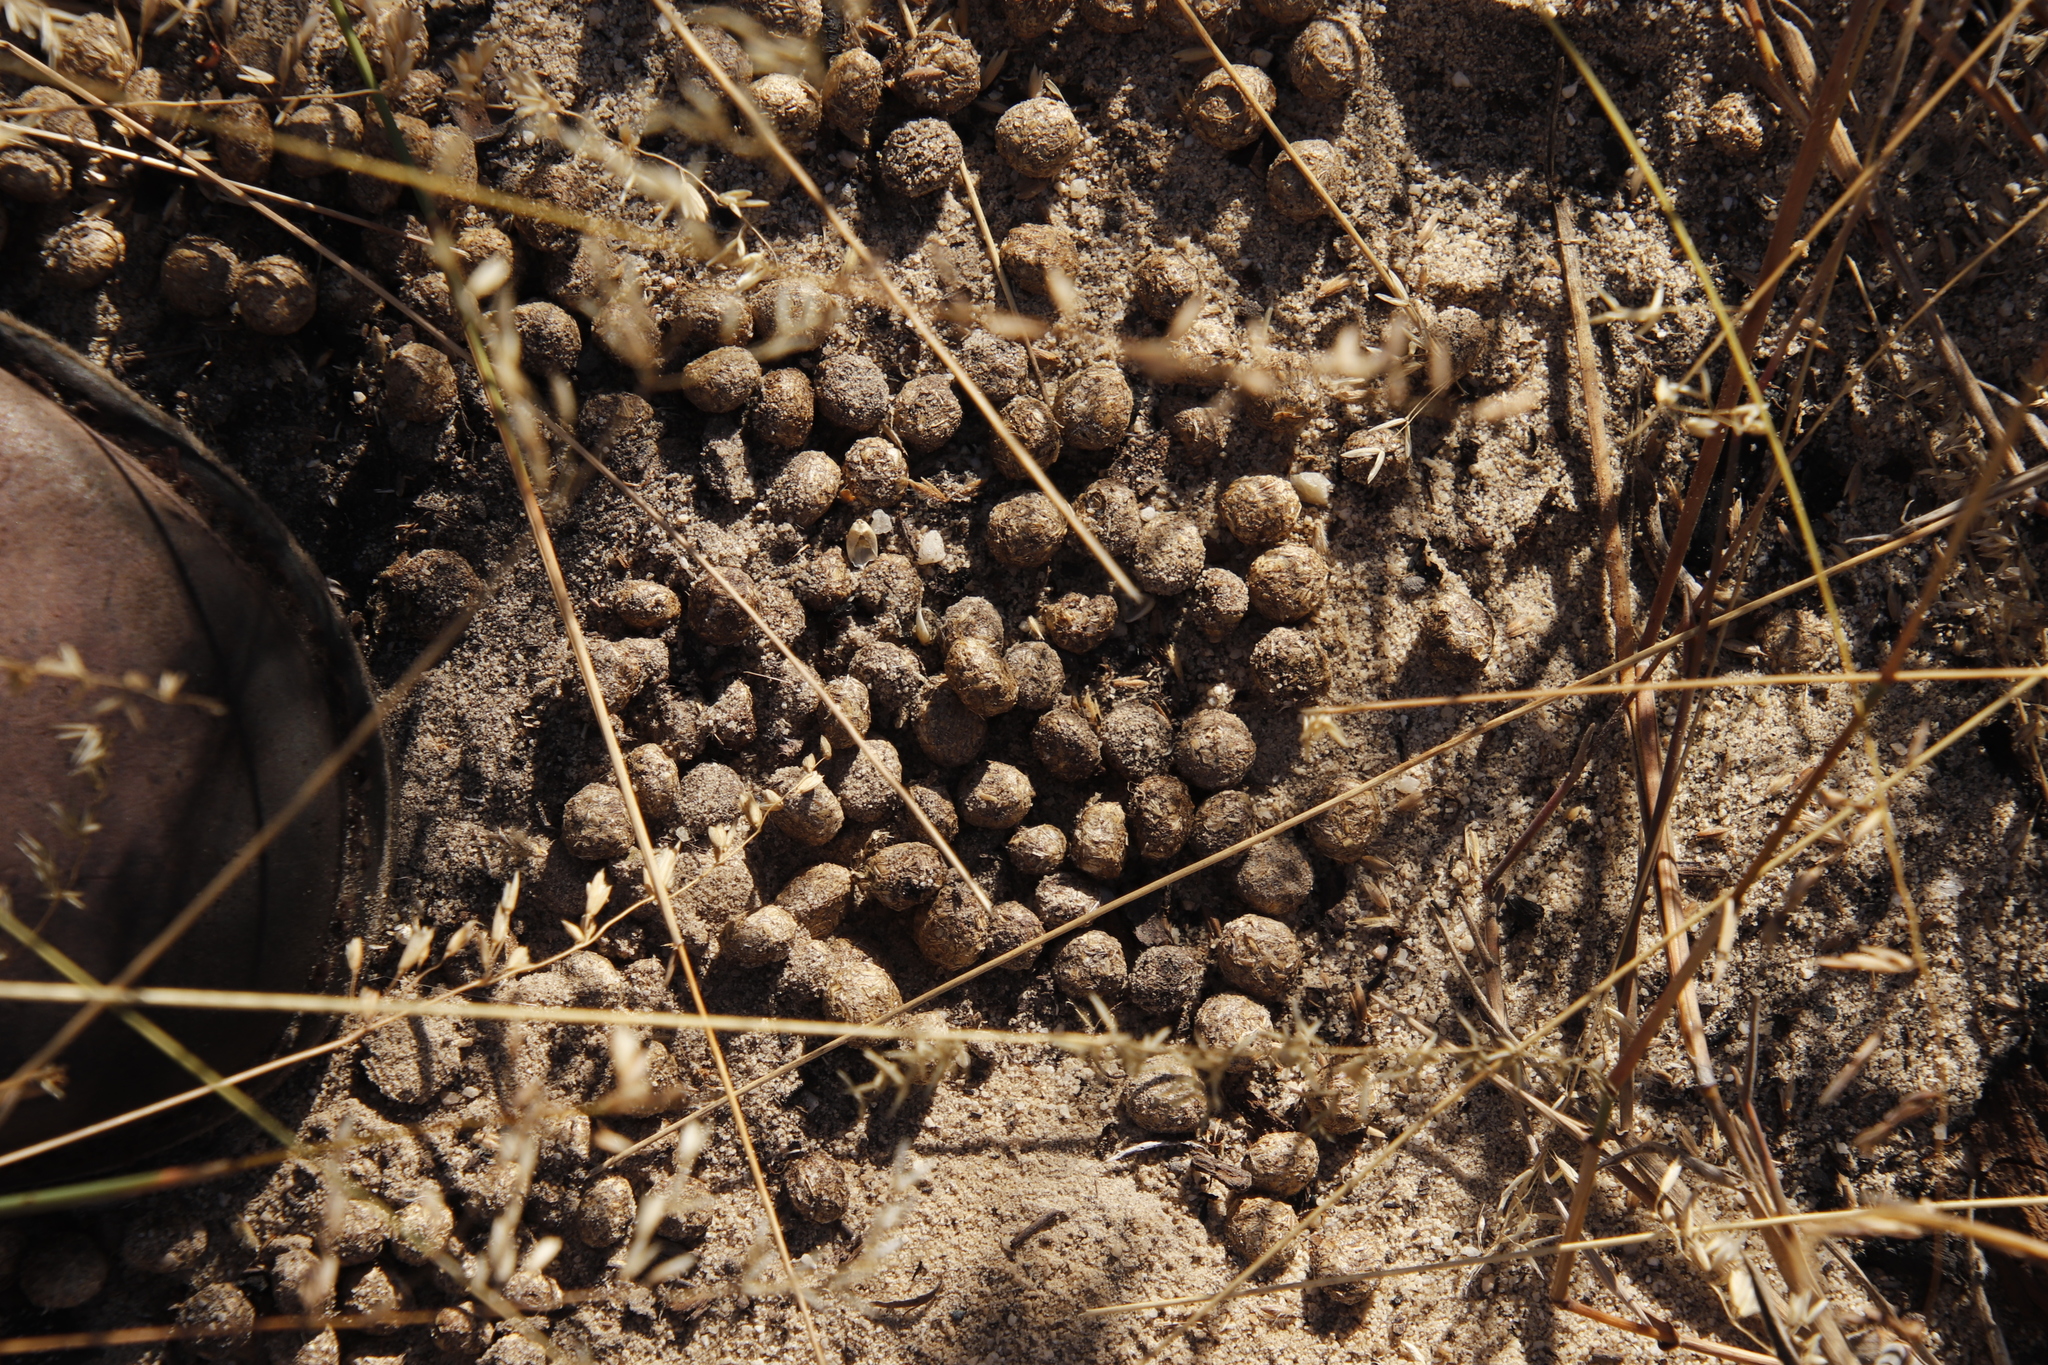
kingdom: Animalia
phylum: Chordata
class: Mammalia
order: Lagomorpha
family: Leporidae
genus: Oryctolagus
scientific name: Oryctolagus cuniculus
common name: European rabbit
